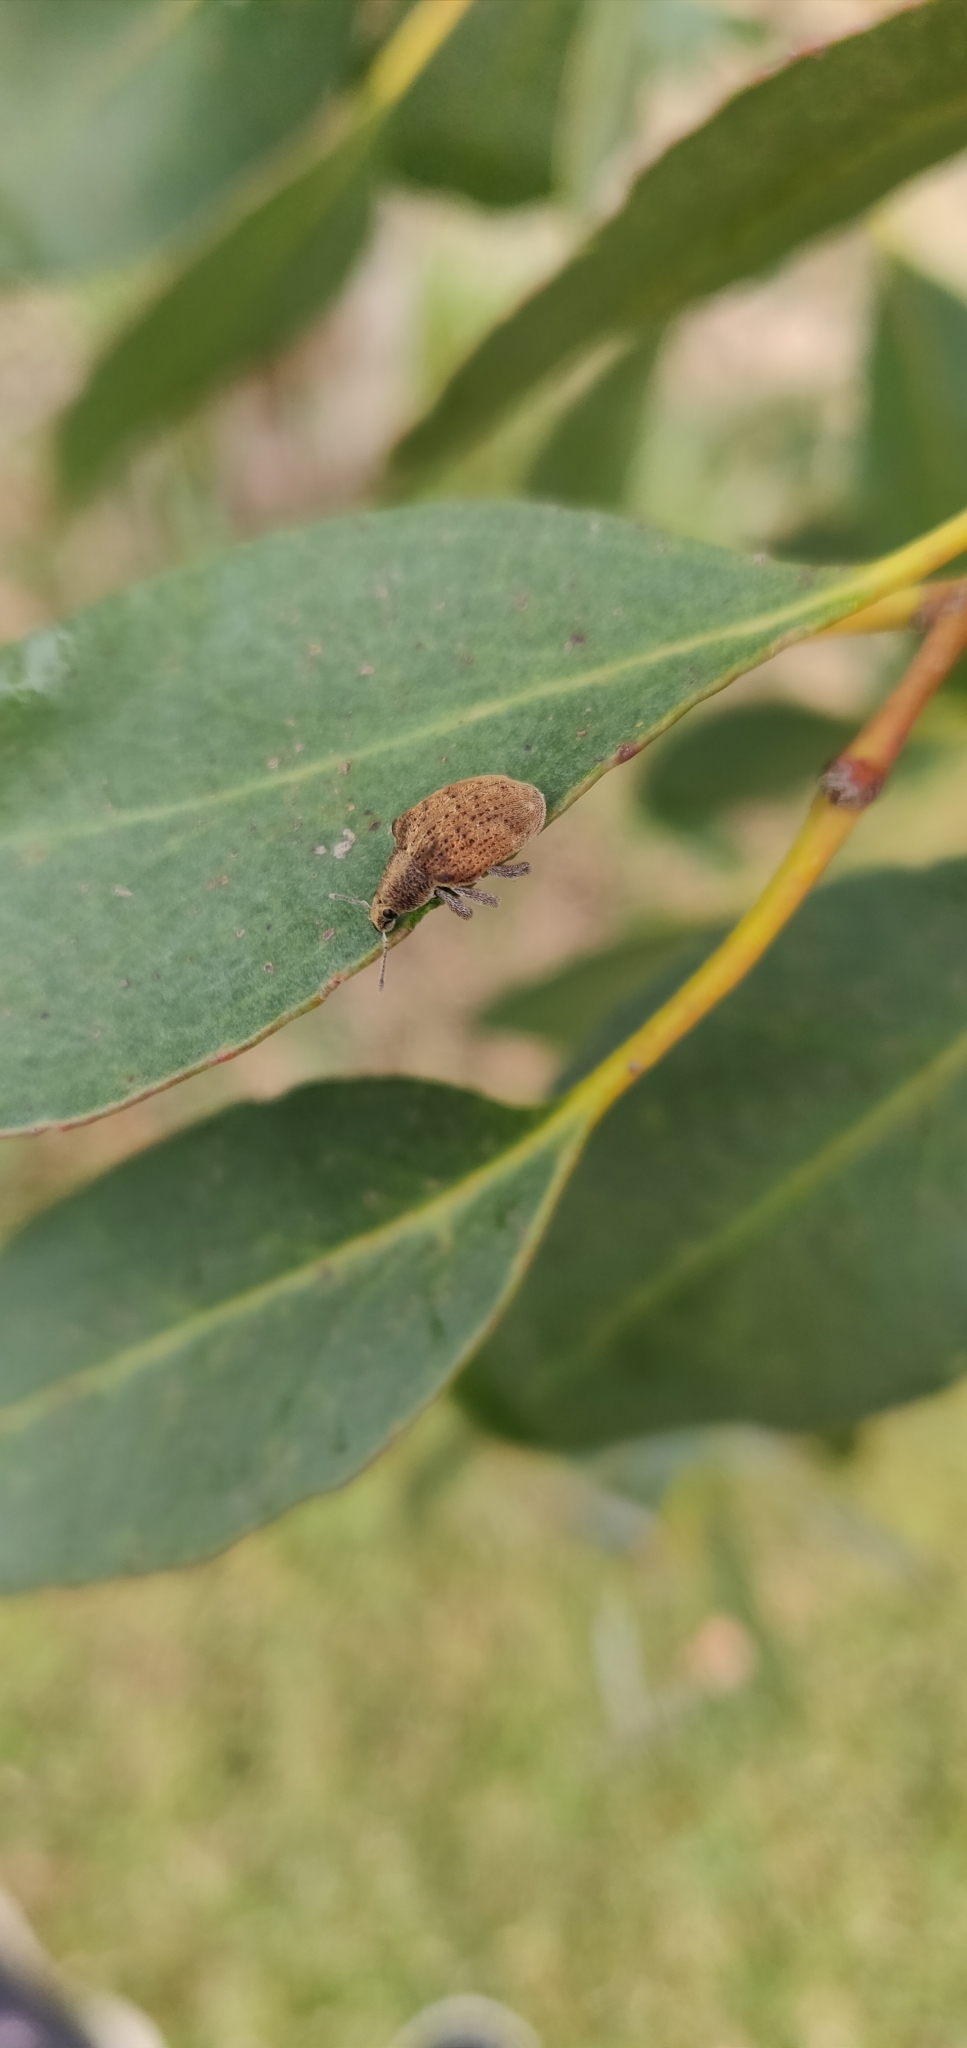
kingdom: Animalia
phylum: Arthropoda
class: Insecta
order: Coleoptera
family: Curculionidae
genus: Gonipterus
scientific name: Gonipterus platensis
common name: Eucalyptus snout beetle
